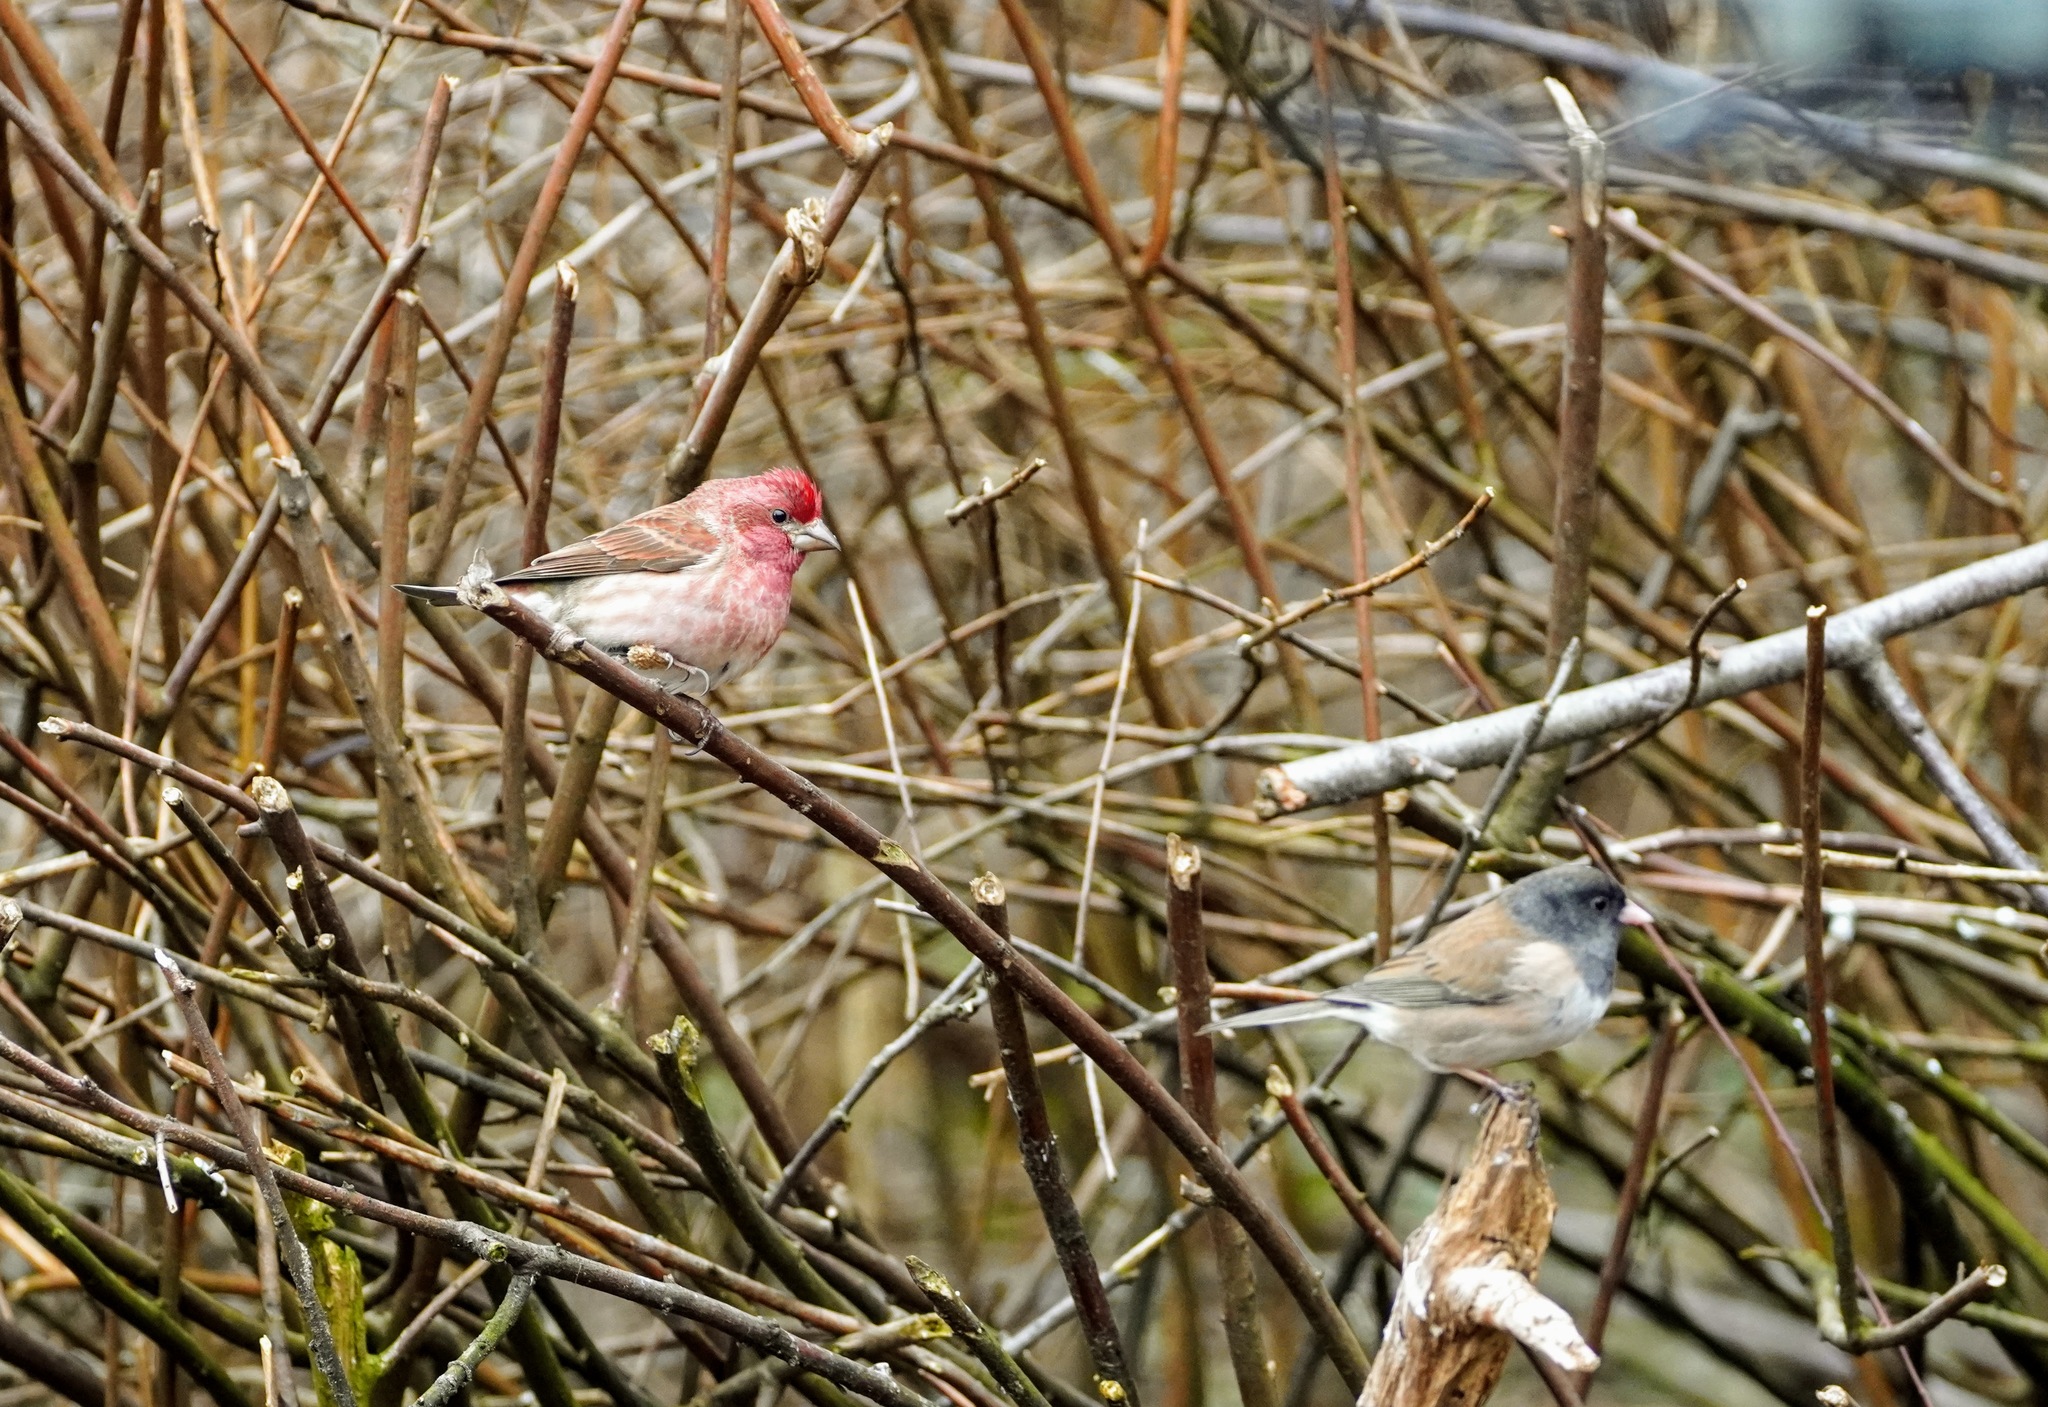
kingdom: Animalia
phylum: Chordata
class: Aves
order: Passeriformes
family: Fringillidae
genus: Haemorhous
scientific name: Haemorhous purpureus
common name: Purple finch
